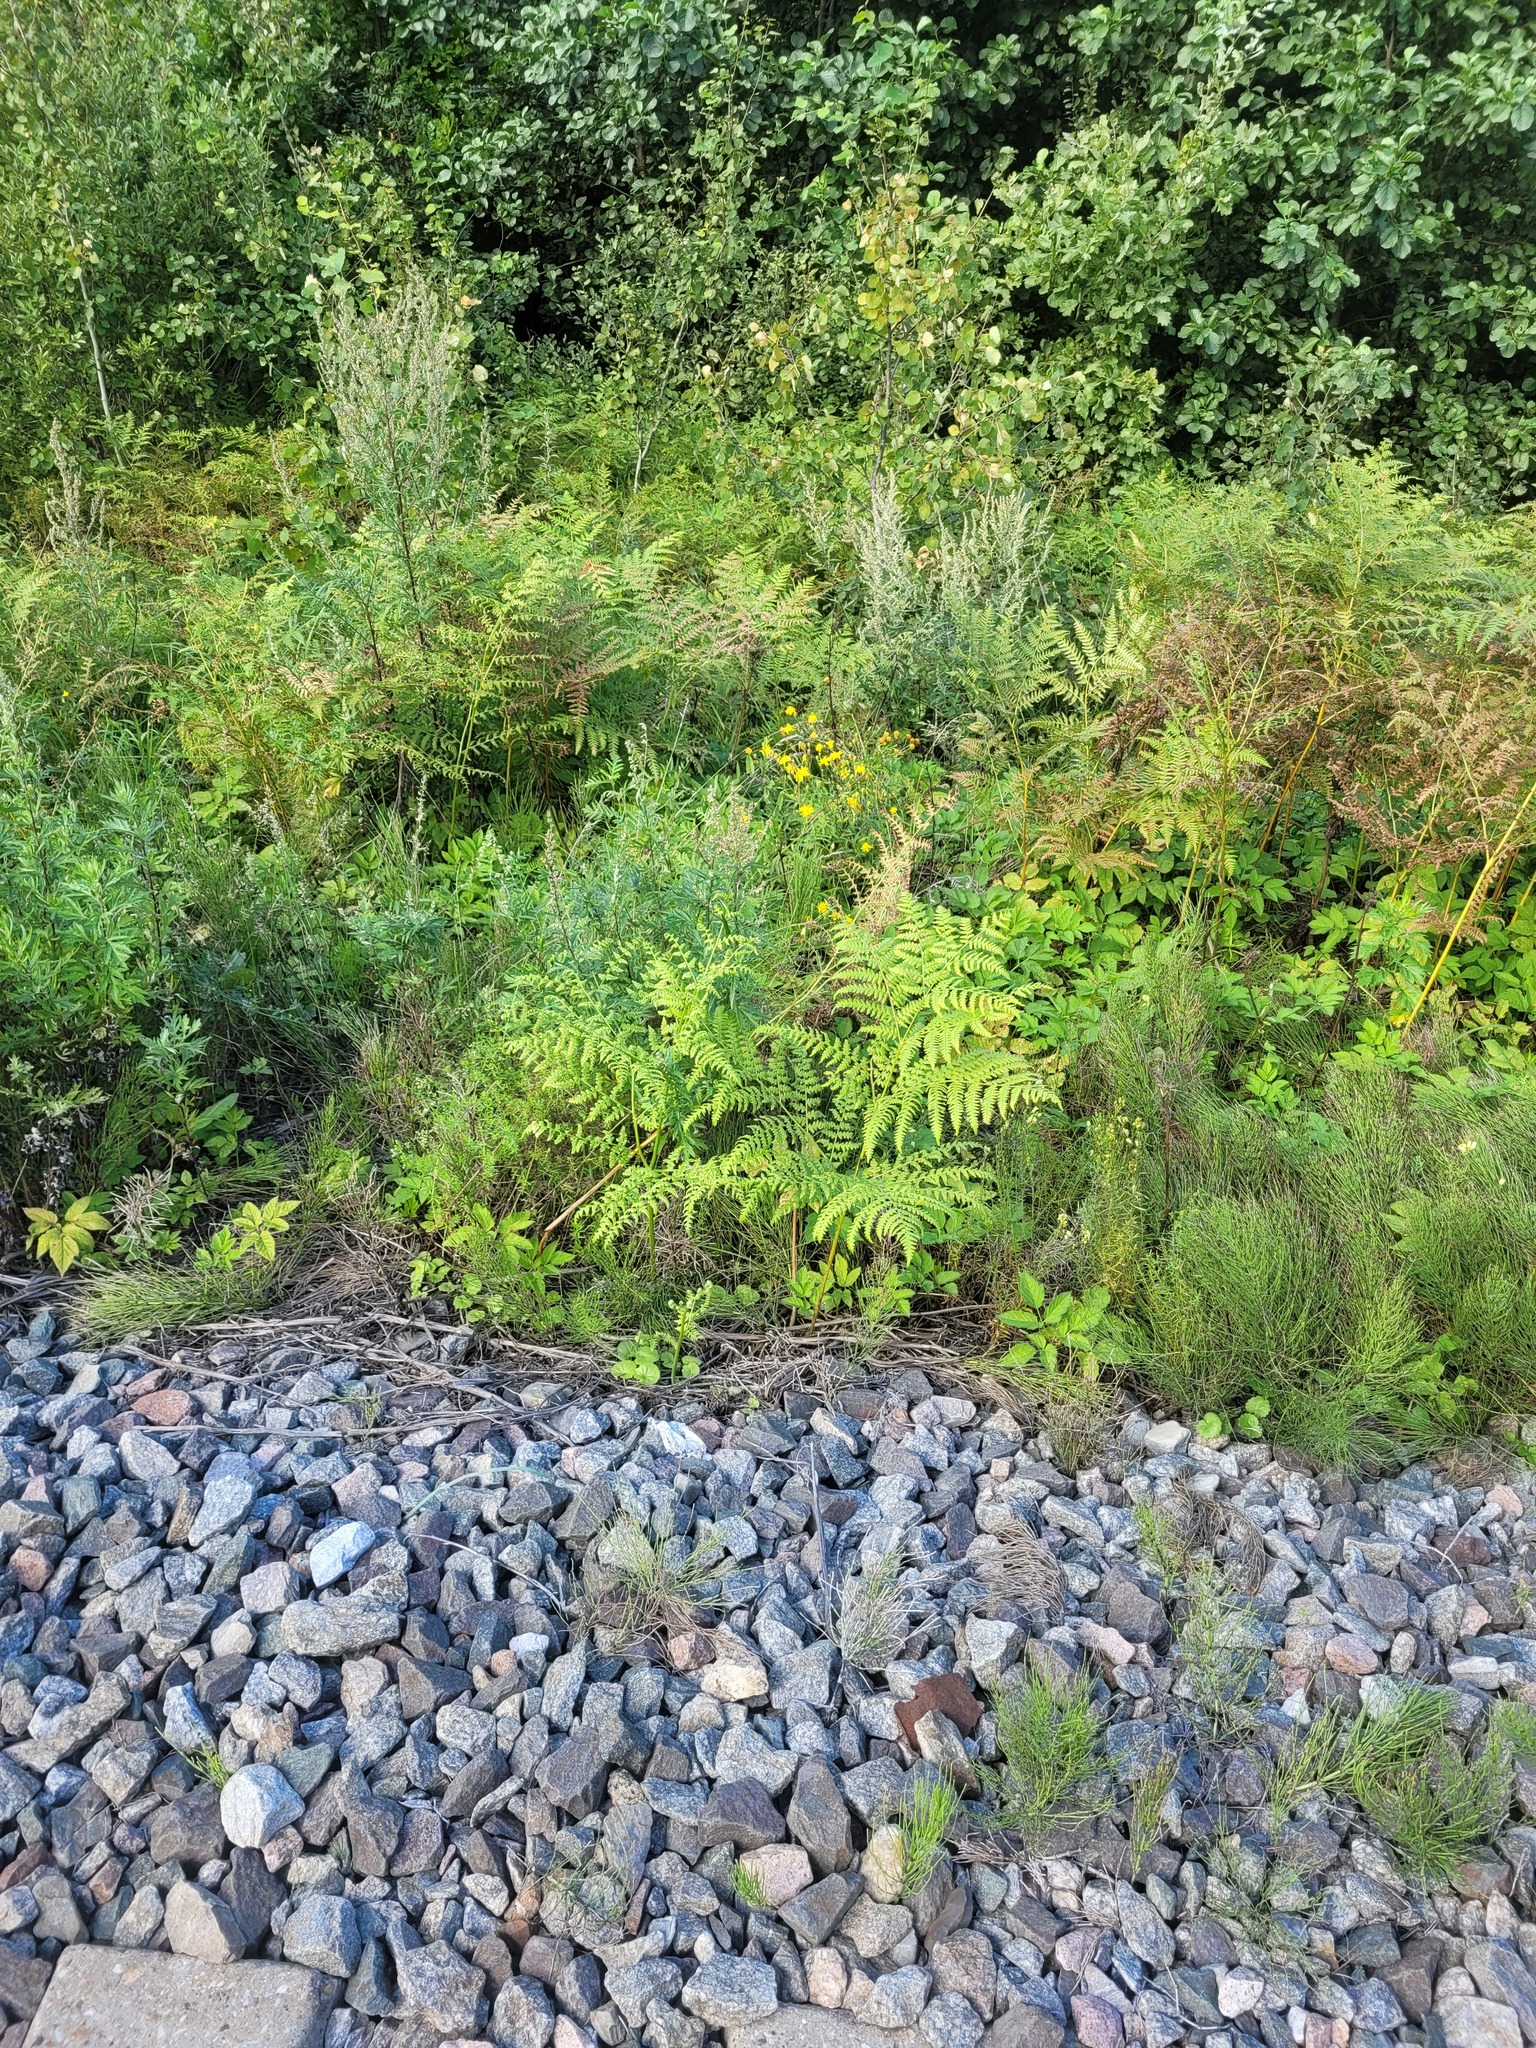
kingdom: Plantae
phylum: Tracheophyta
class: Polypodiopsida
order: Polypodiales
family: Dennstaedtiaceae
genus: Pteridium
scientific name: Pteridium aquilinum
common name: Bracken
